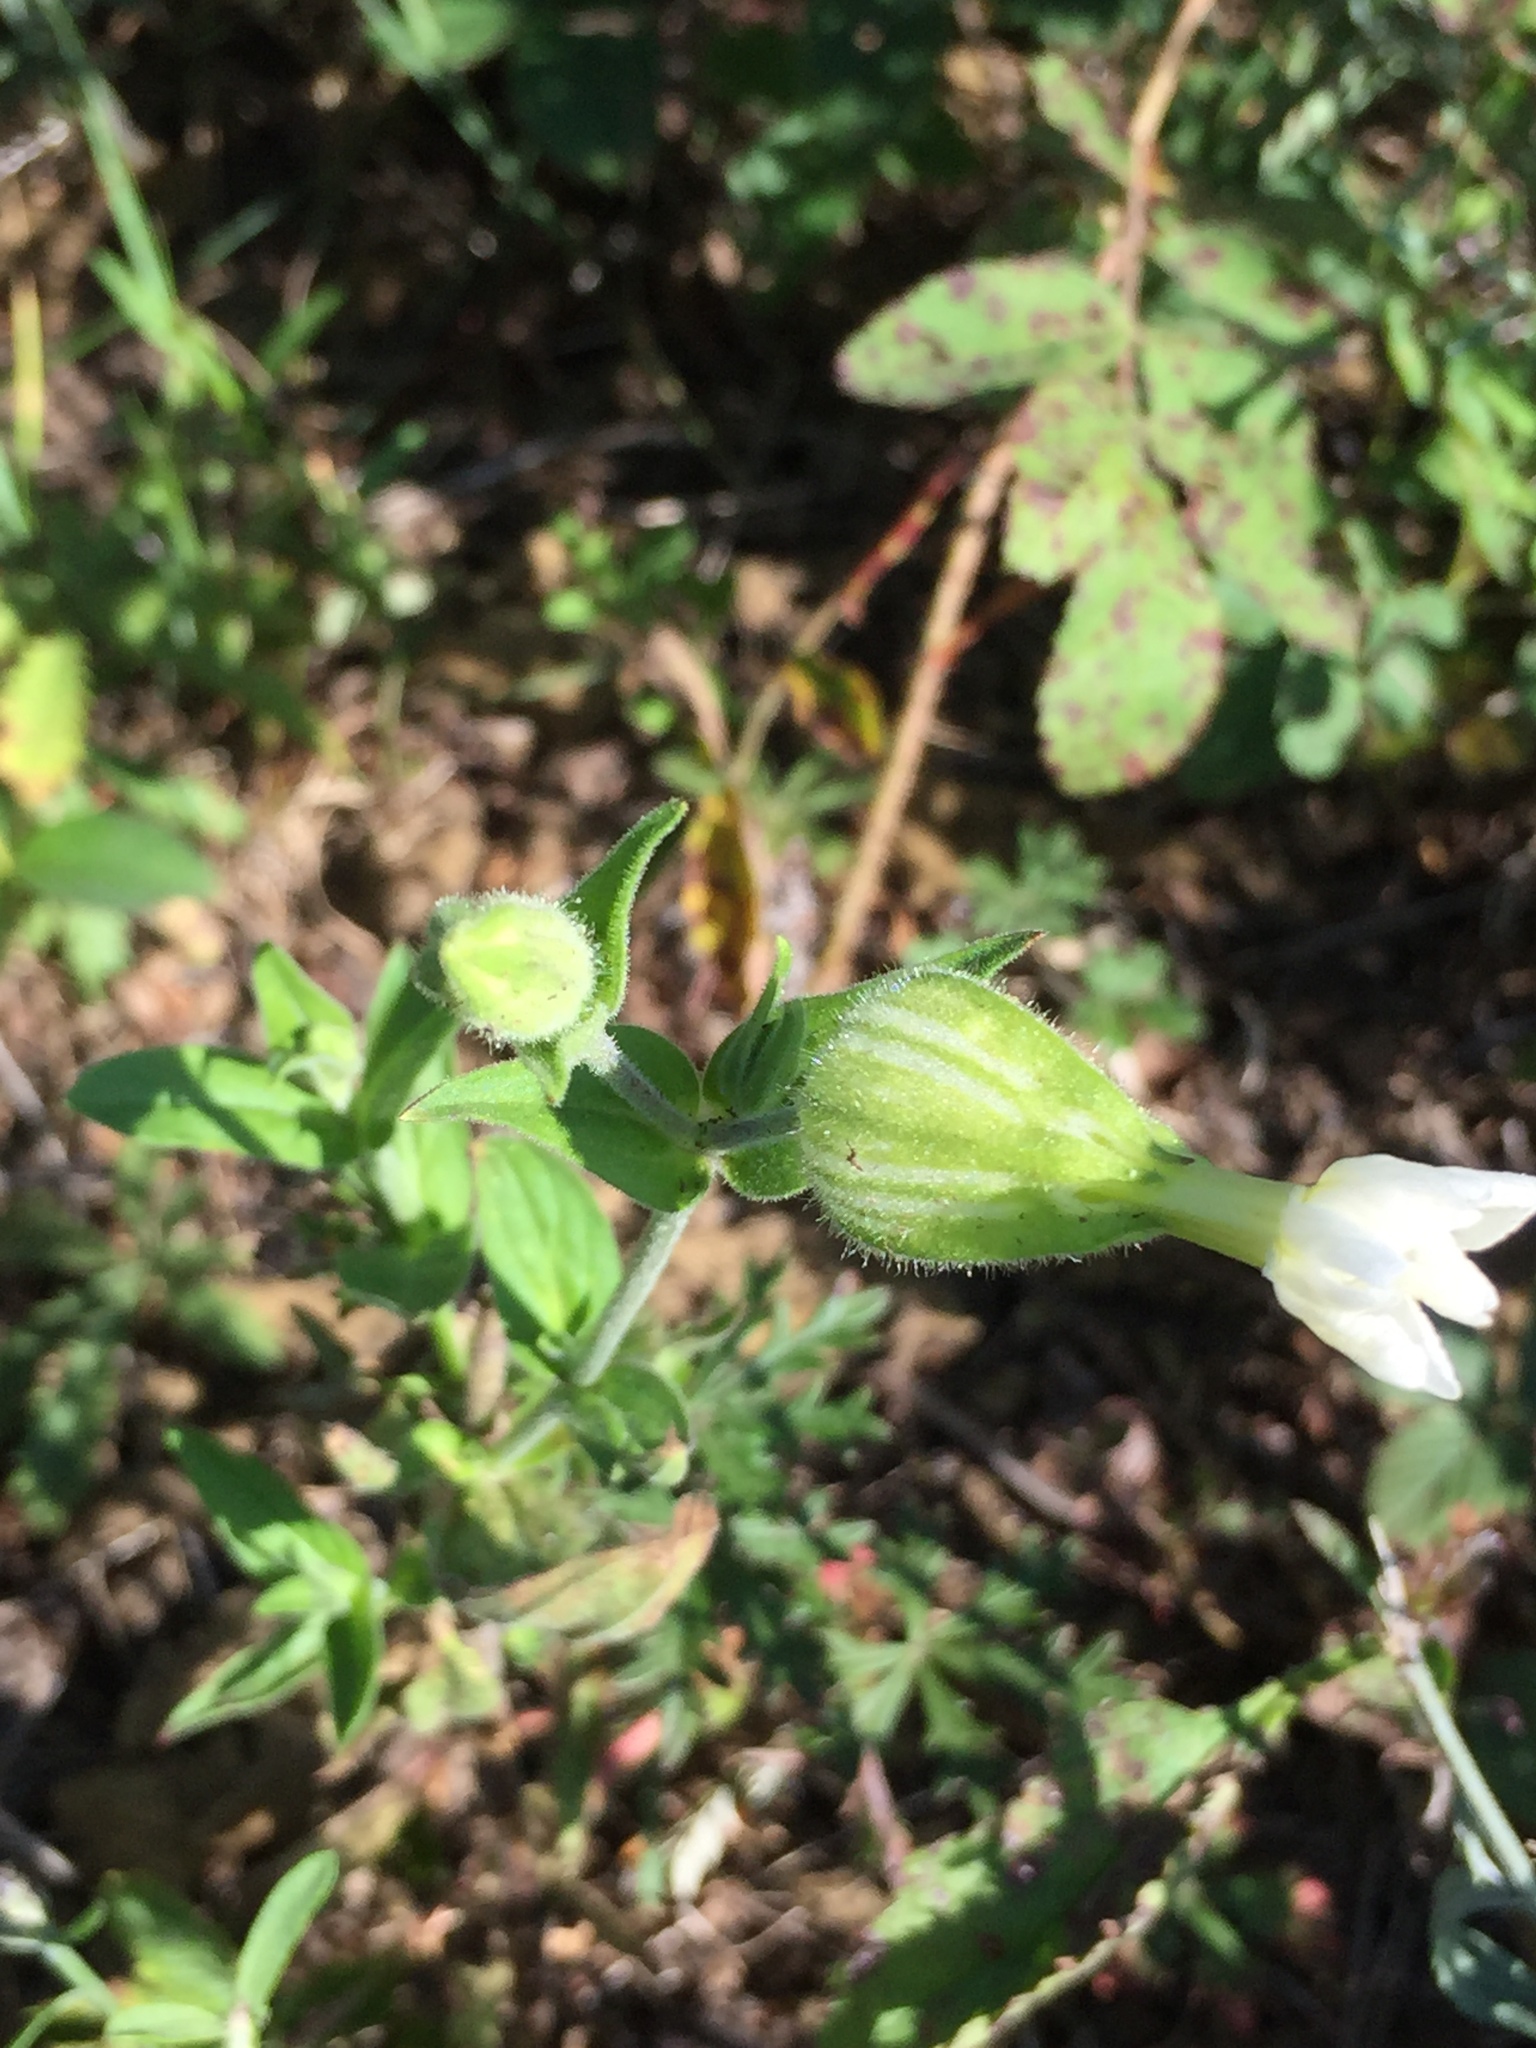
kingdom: Plantae
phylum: Tracheophyta
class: Magnoliopsida
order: Caryophyllales
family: Caryophyllaceae
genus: Silene
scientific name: Silene latifolia
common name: White campion
